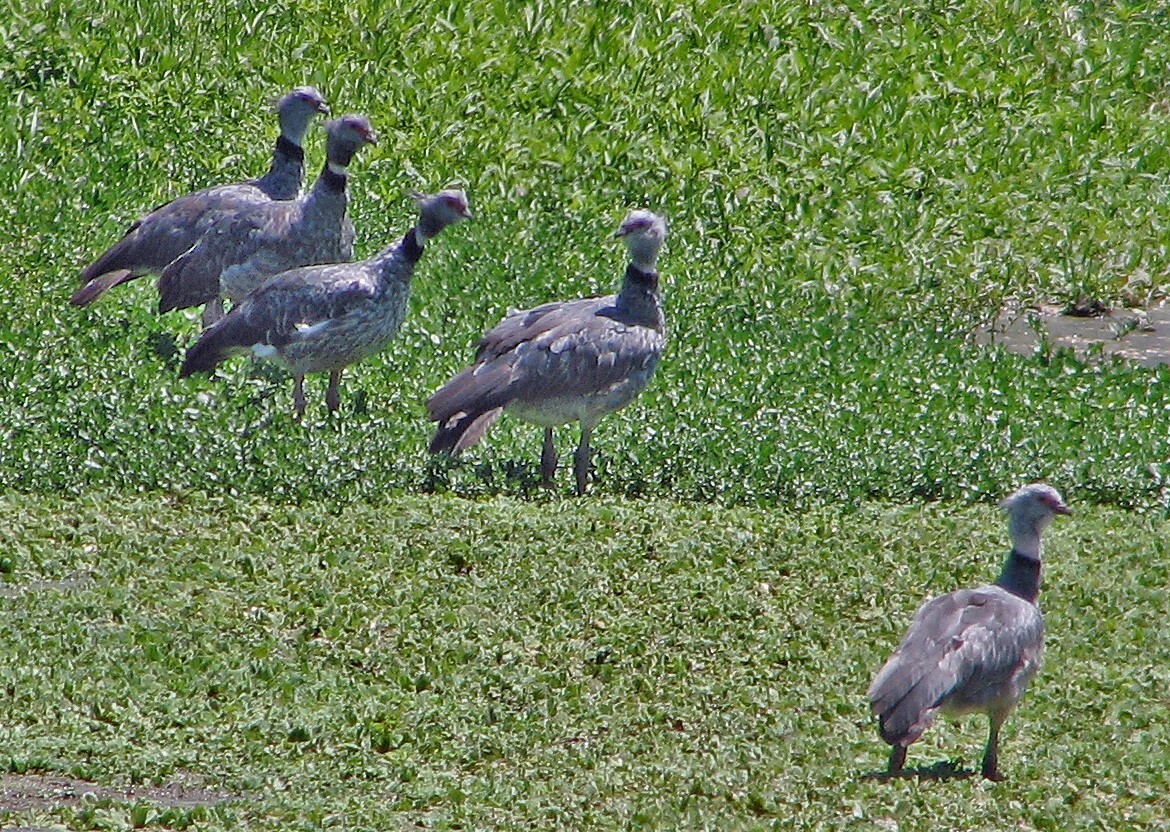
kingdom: Animalia
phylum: Chordata
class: Aves
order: Anseriformes
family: Anhimidae
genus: Chauna
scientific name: Chauna torquata
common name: Southern screamer
